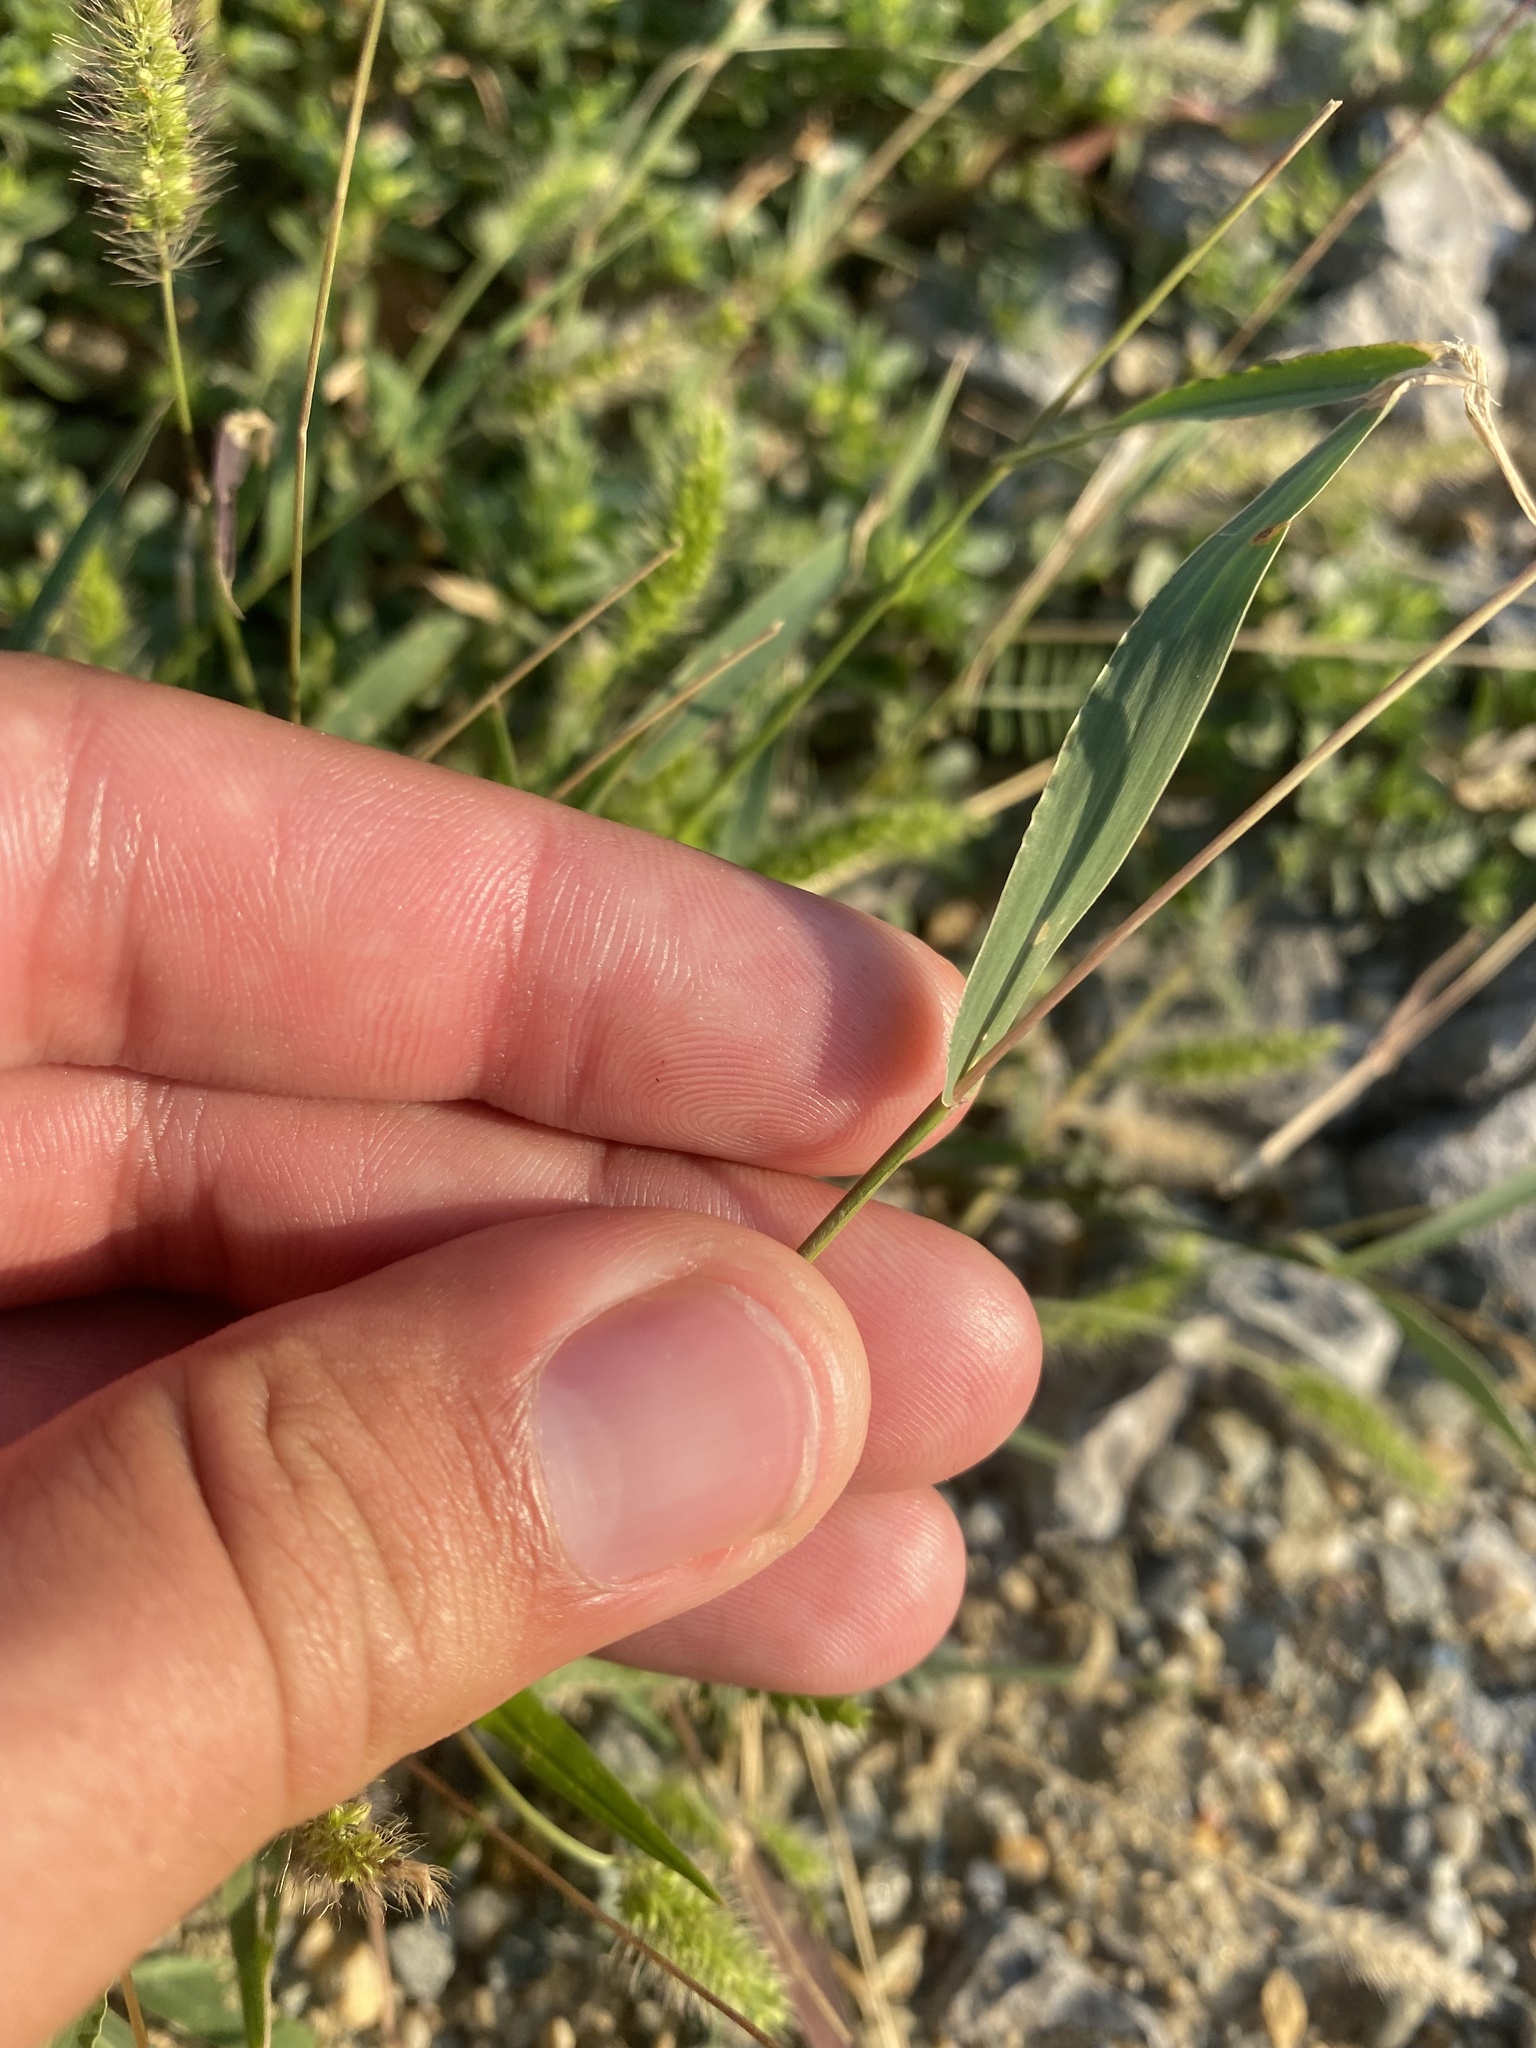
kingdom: Plantae
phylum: Tracheophyta
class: Liliopsida
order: Poales
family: Poaceae
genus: Setaria
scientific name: Setaria viridis
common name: Green bristlegrass
